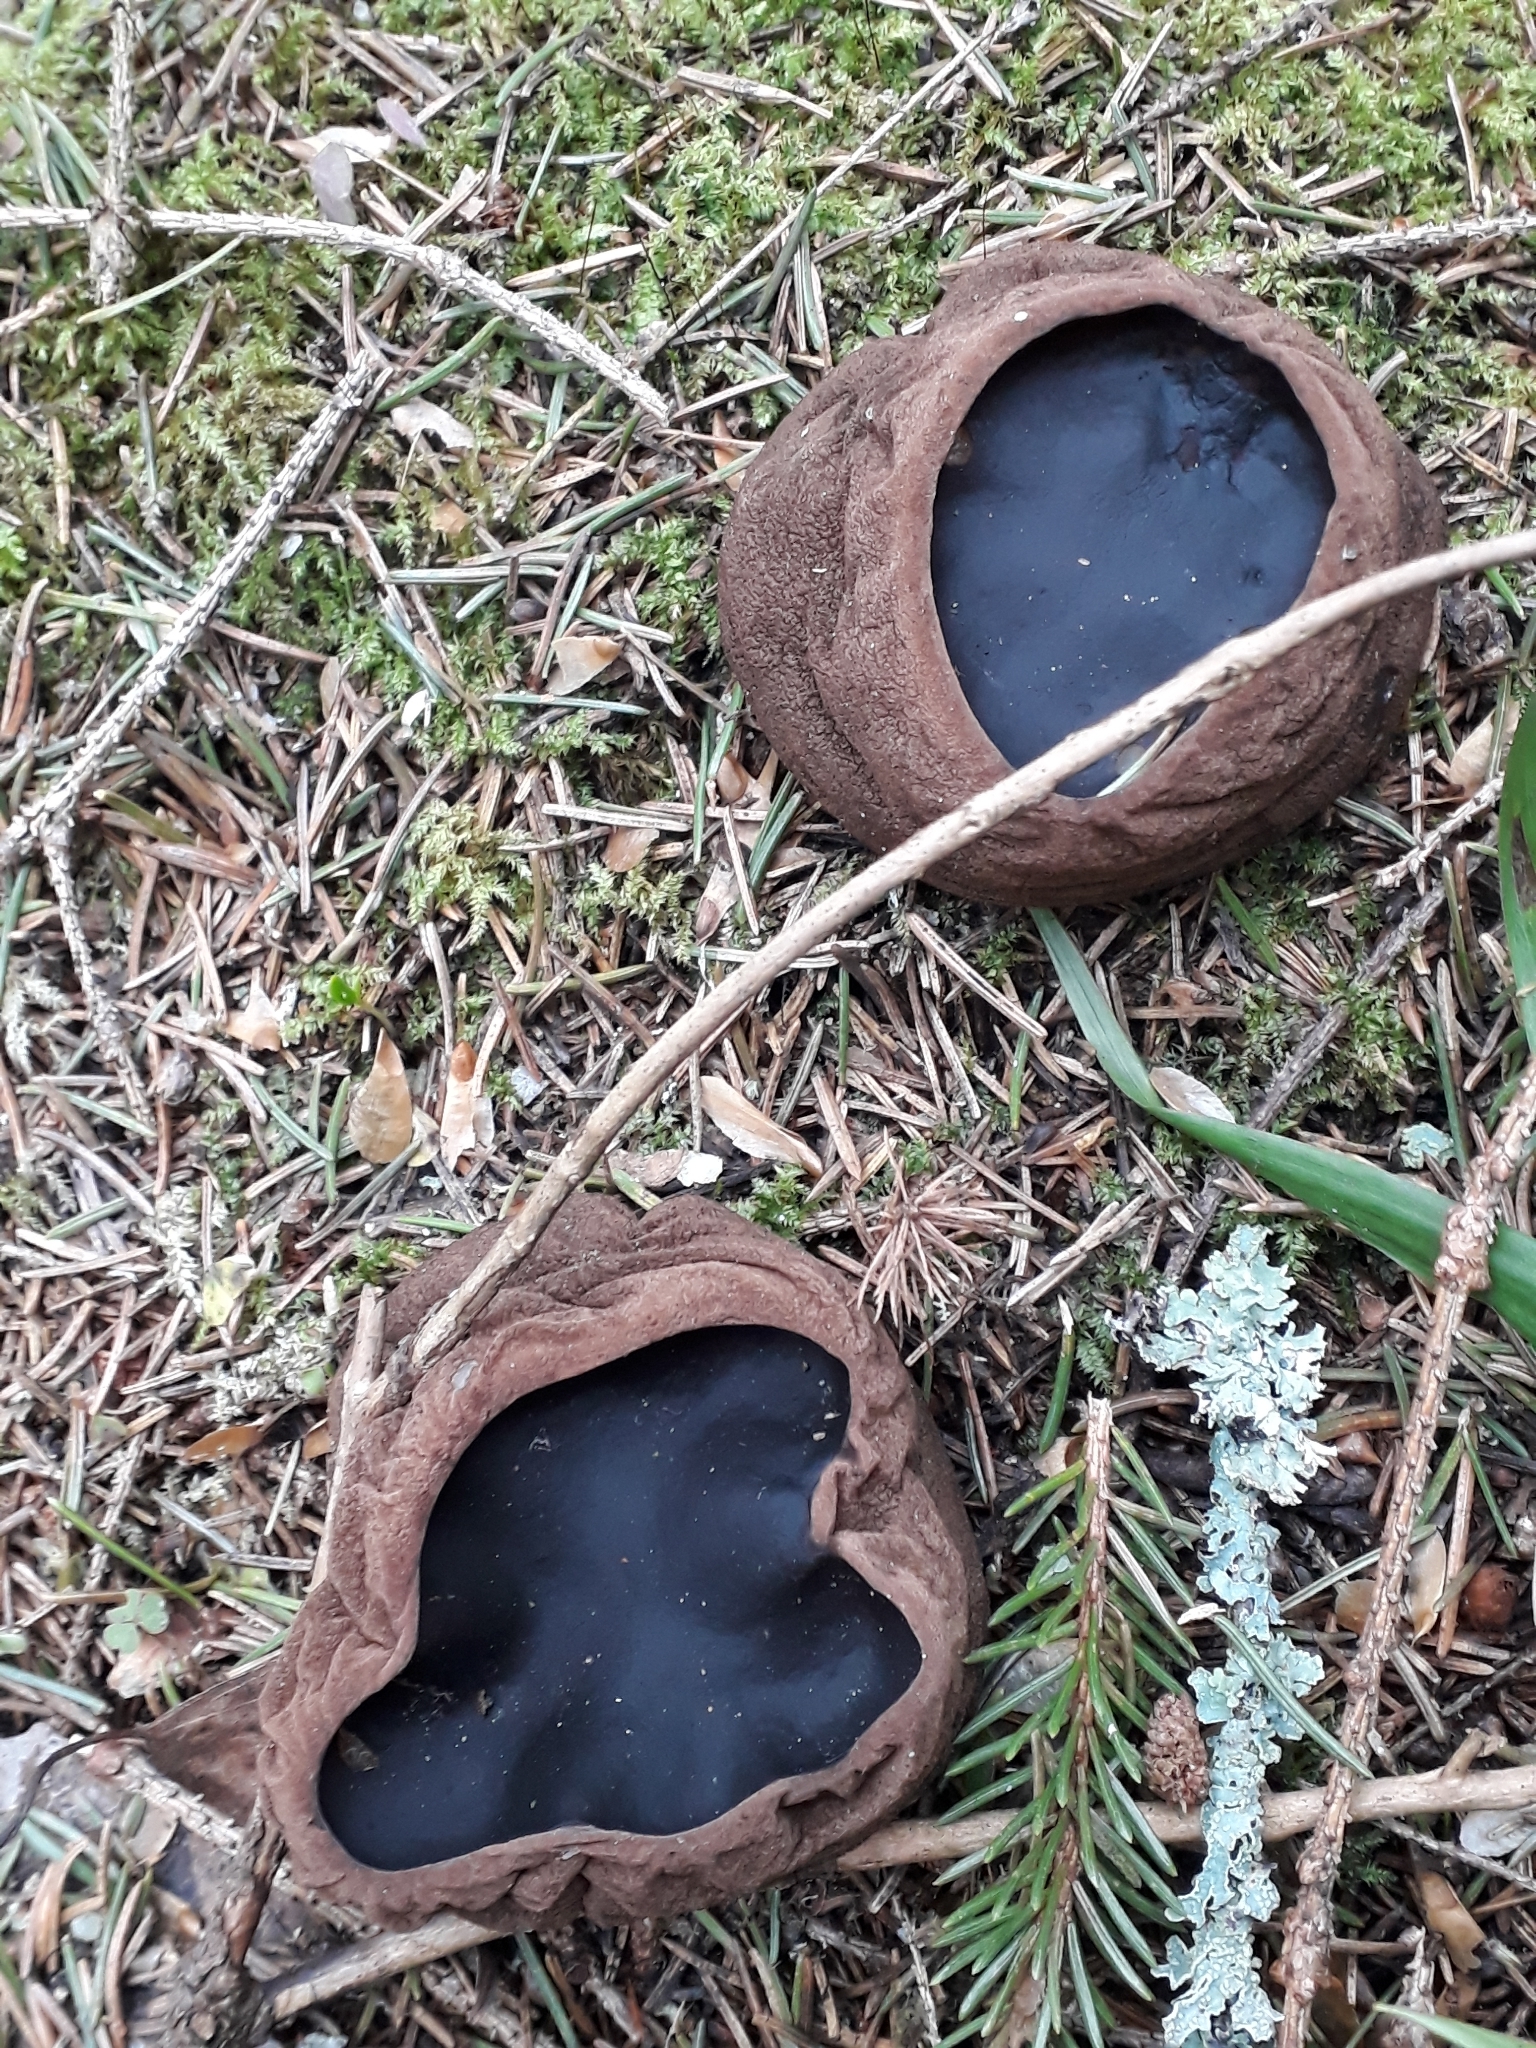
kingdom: Fungi
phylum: Ascomycota
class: Pezizomycetes
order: Pezizales
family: Sarcosomataceae
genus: Sarcosoma
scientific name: Sarcosoma globosum
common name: Charred-pancake cup
